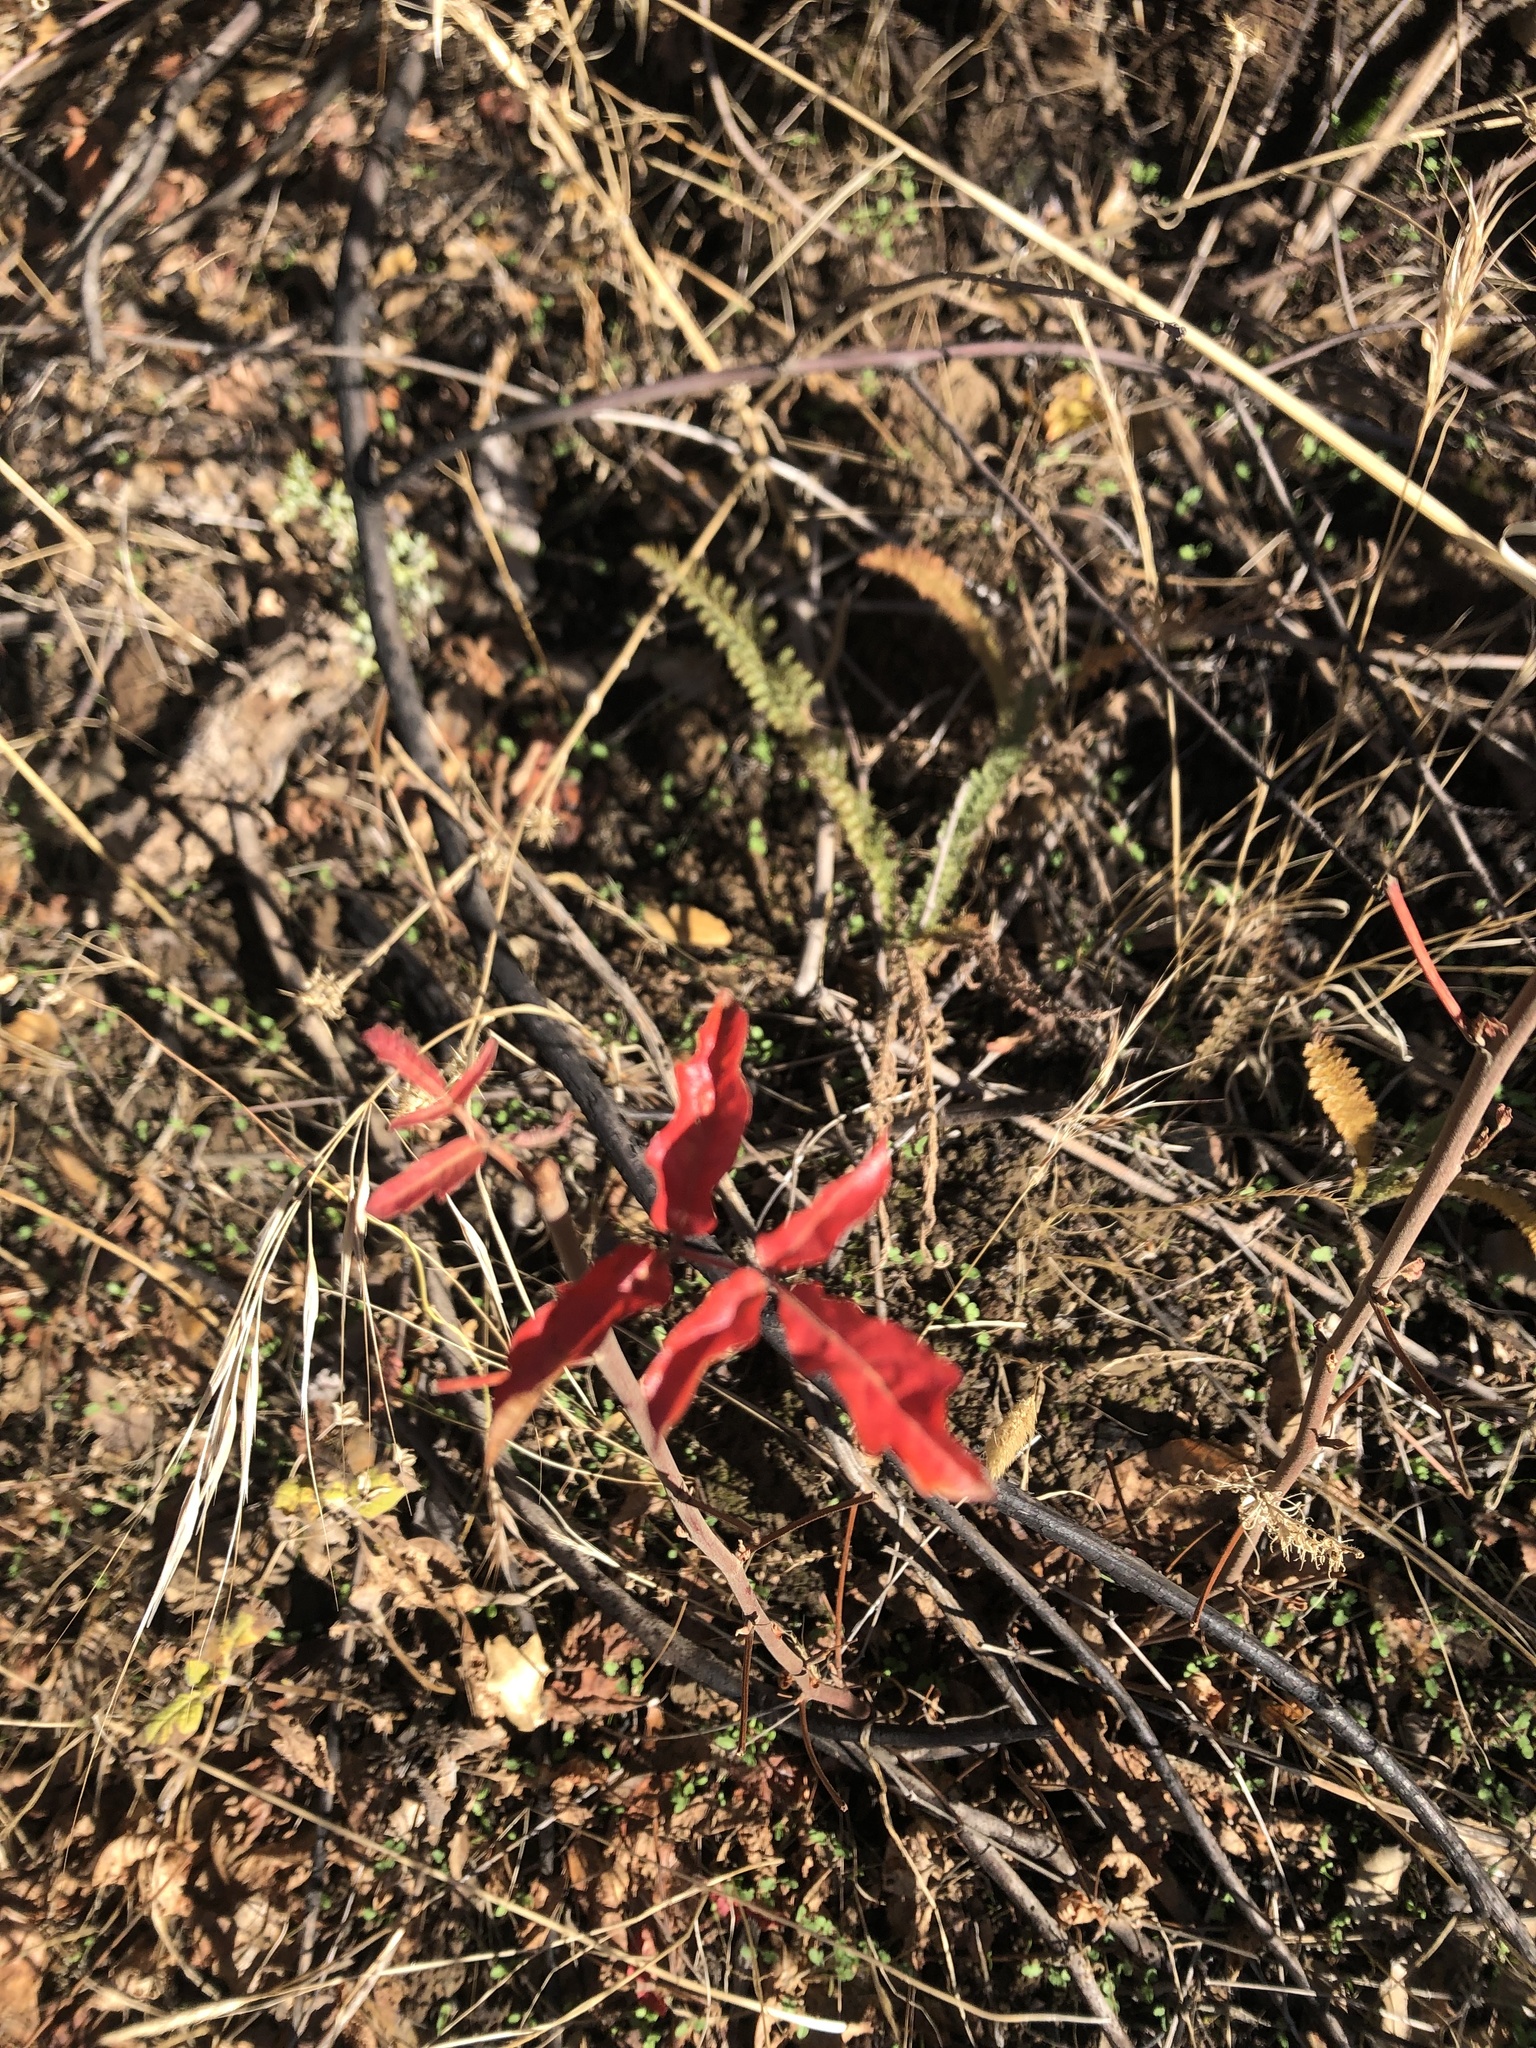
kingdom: Plantae
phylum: Tracheophyta
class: Magnoliopsida
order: Sapindales
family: Anacardiaceae
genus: Toxicodendron
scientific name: Toxicodendron diversilobum
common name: Pacific poison-oak
